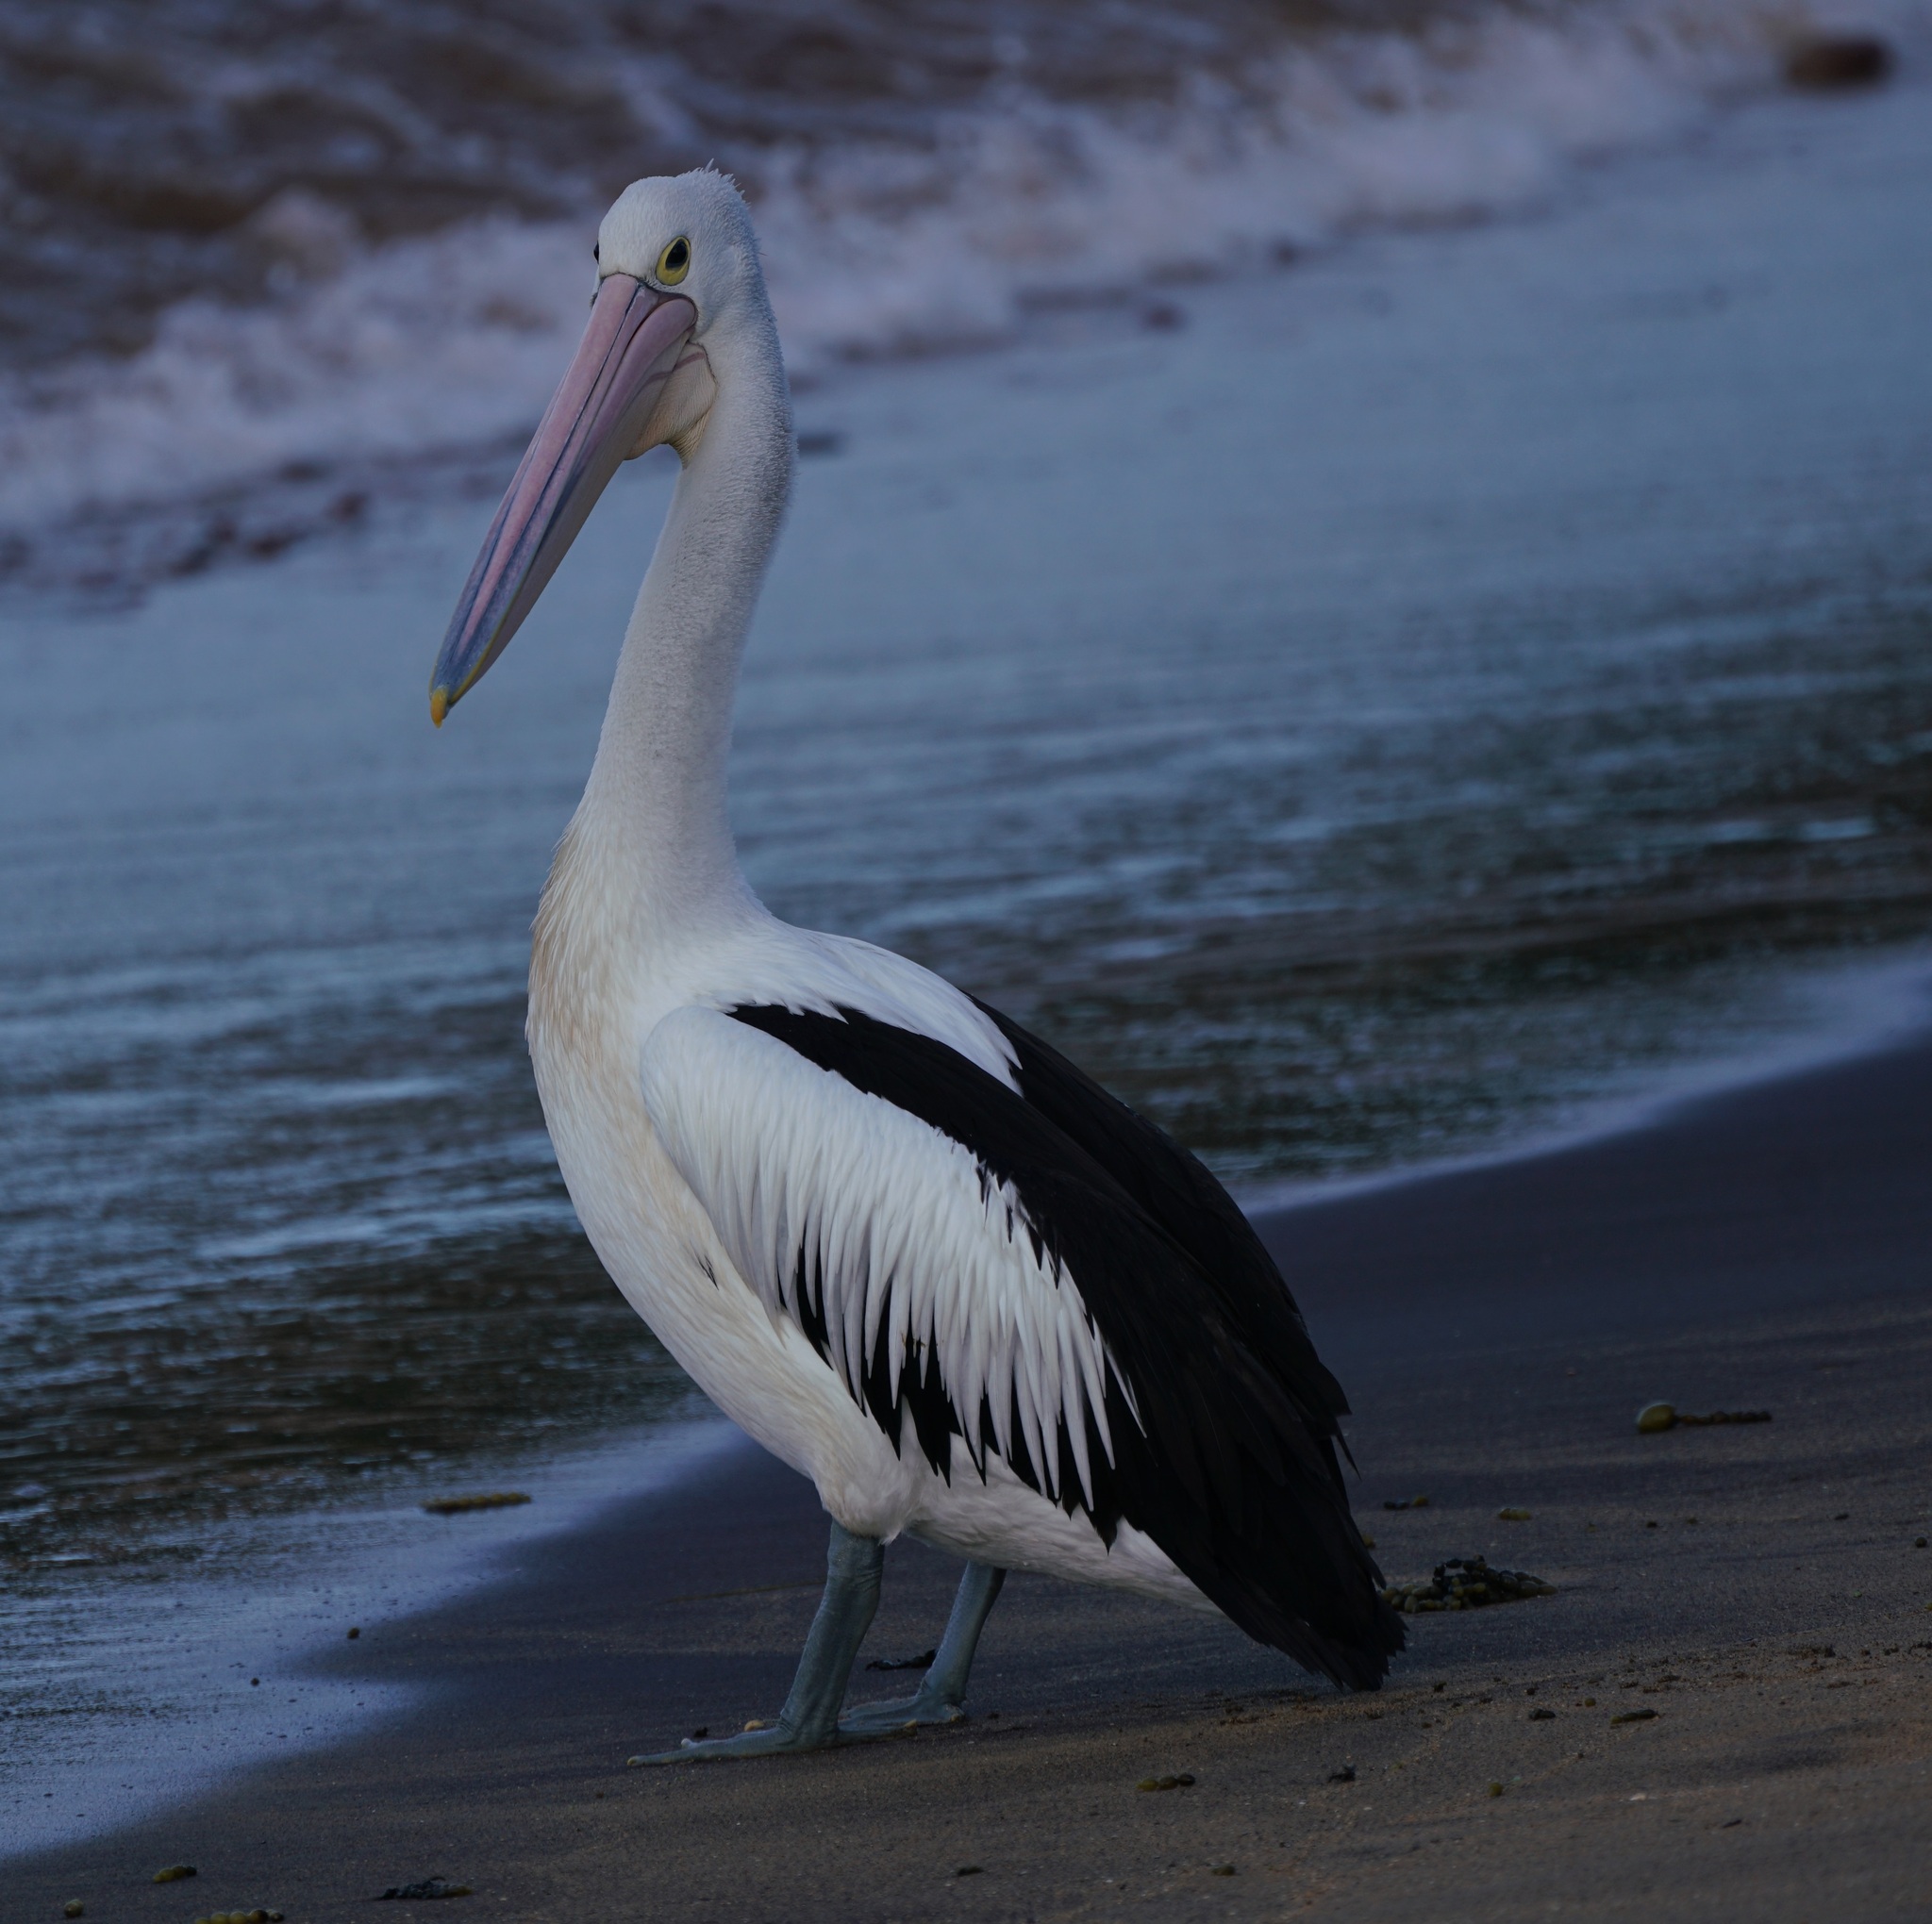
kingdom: Animalia
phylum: Chordata
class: Aves
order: Pelecaniformes
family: Pelecanidae
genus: Pelecanus
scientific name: Pelecanus conspicillatus
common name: Australian pelican
